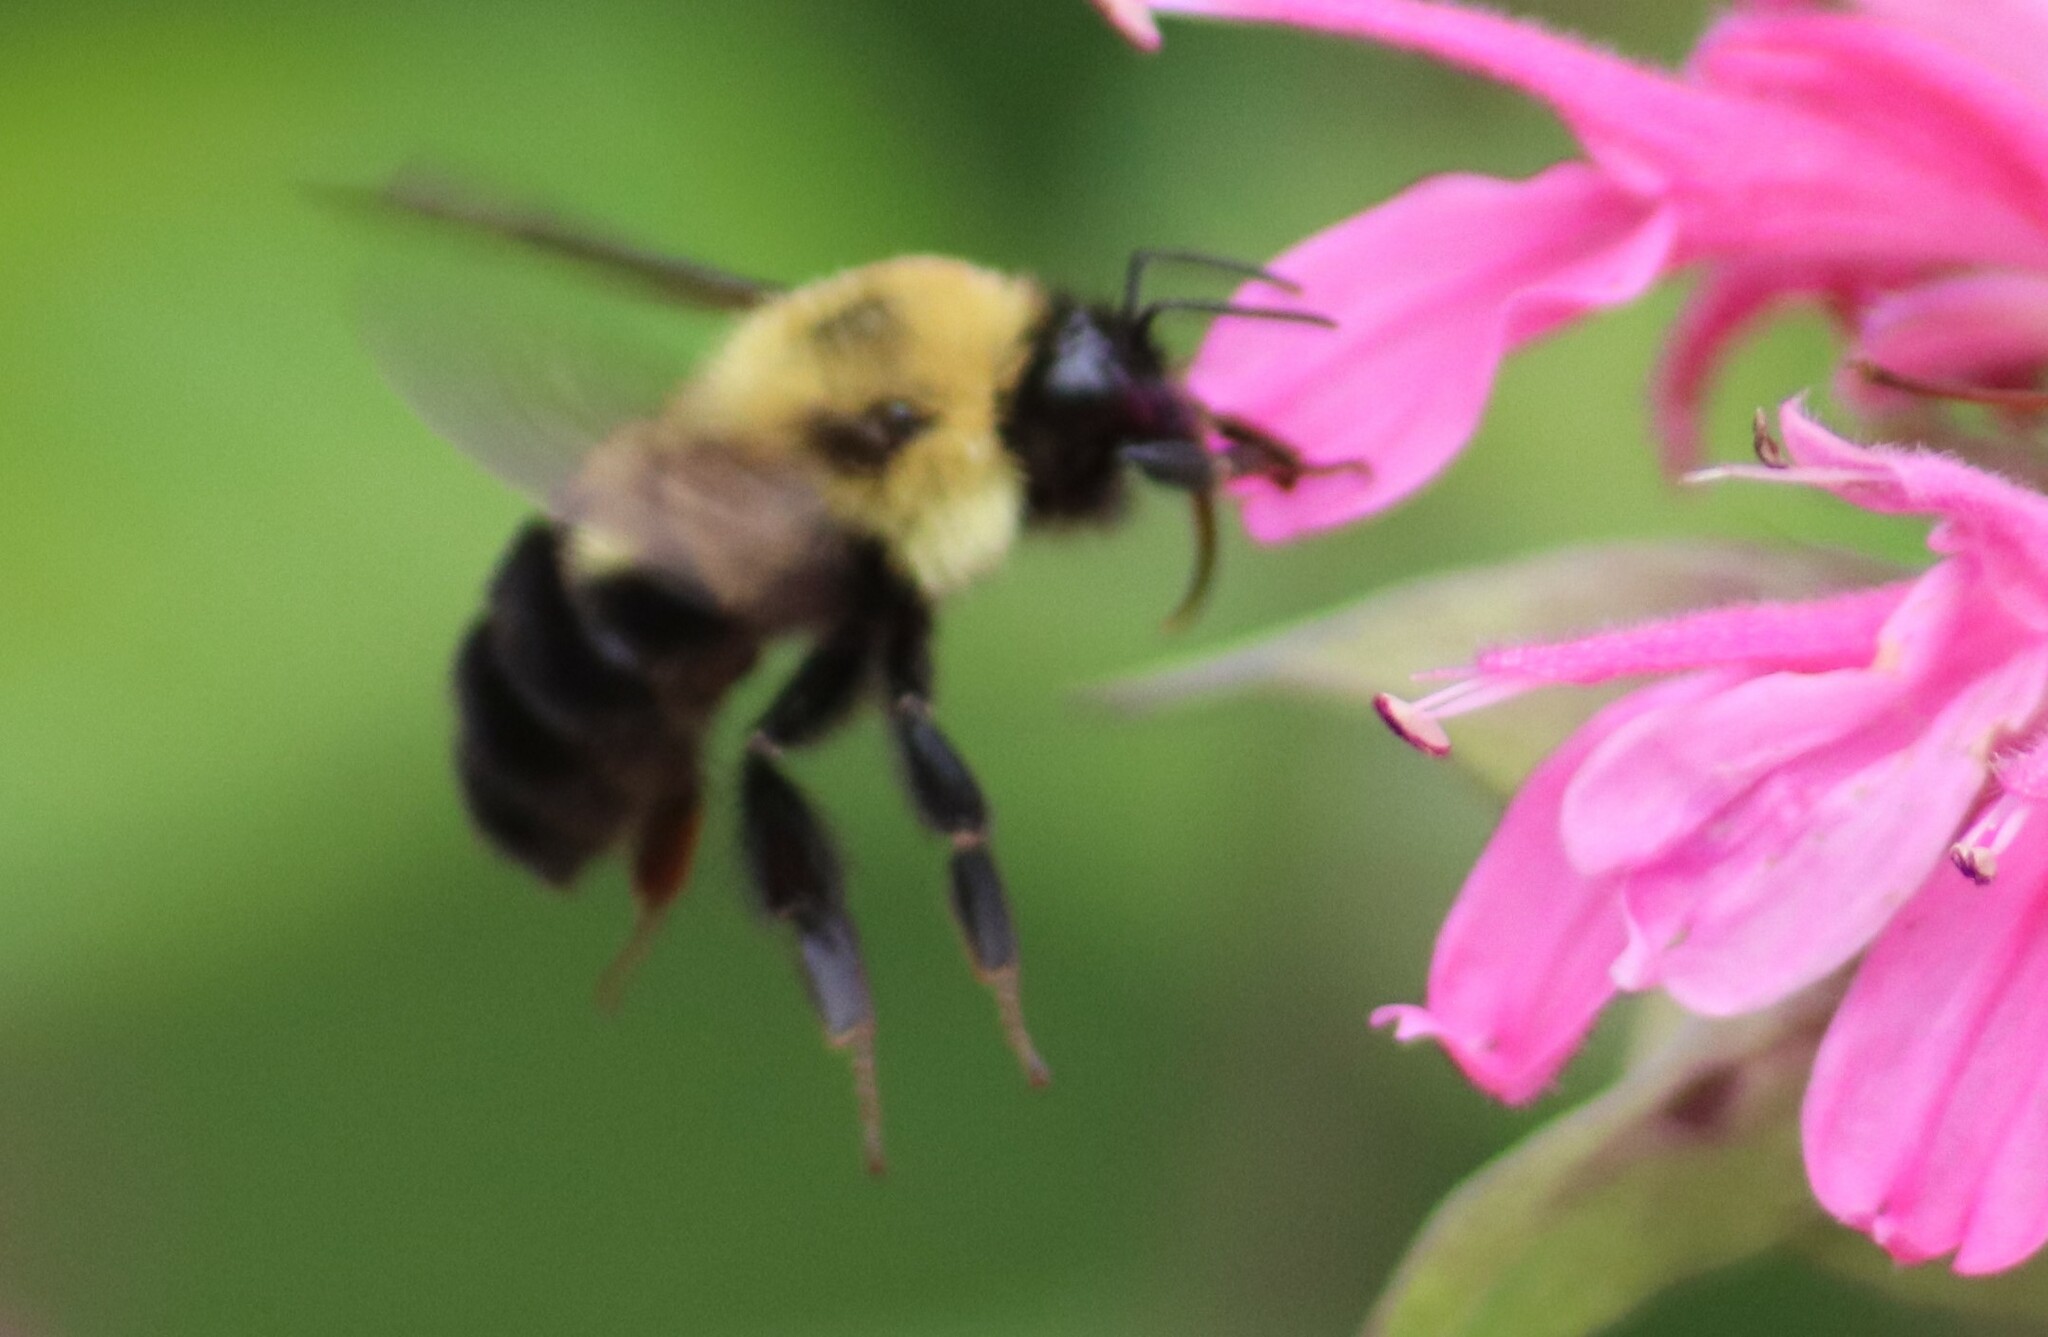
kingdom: Animalia
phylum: Arthropoda
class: Insecta
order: Hymenoptera
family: Apidae
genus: Bombus
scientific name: Bombus bimaculatus
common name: Two-spotted bumble bee
